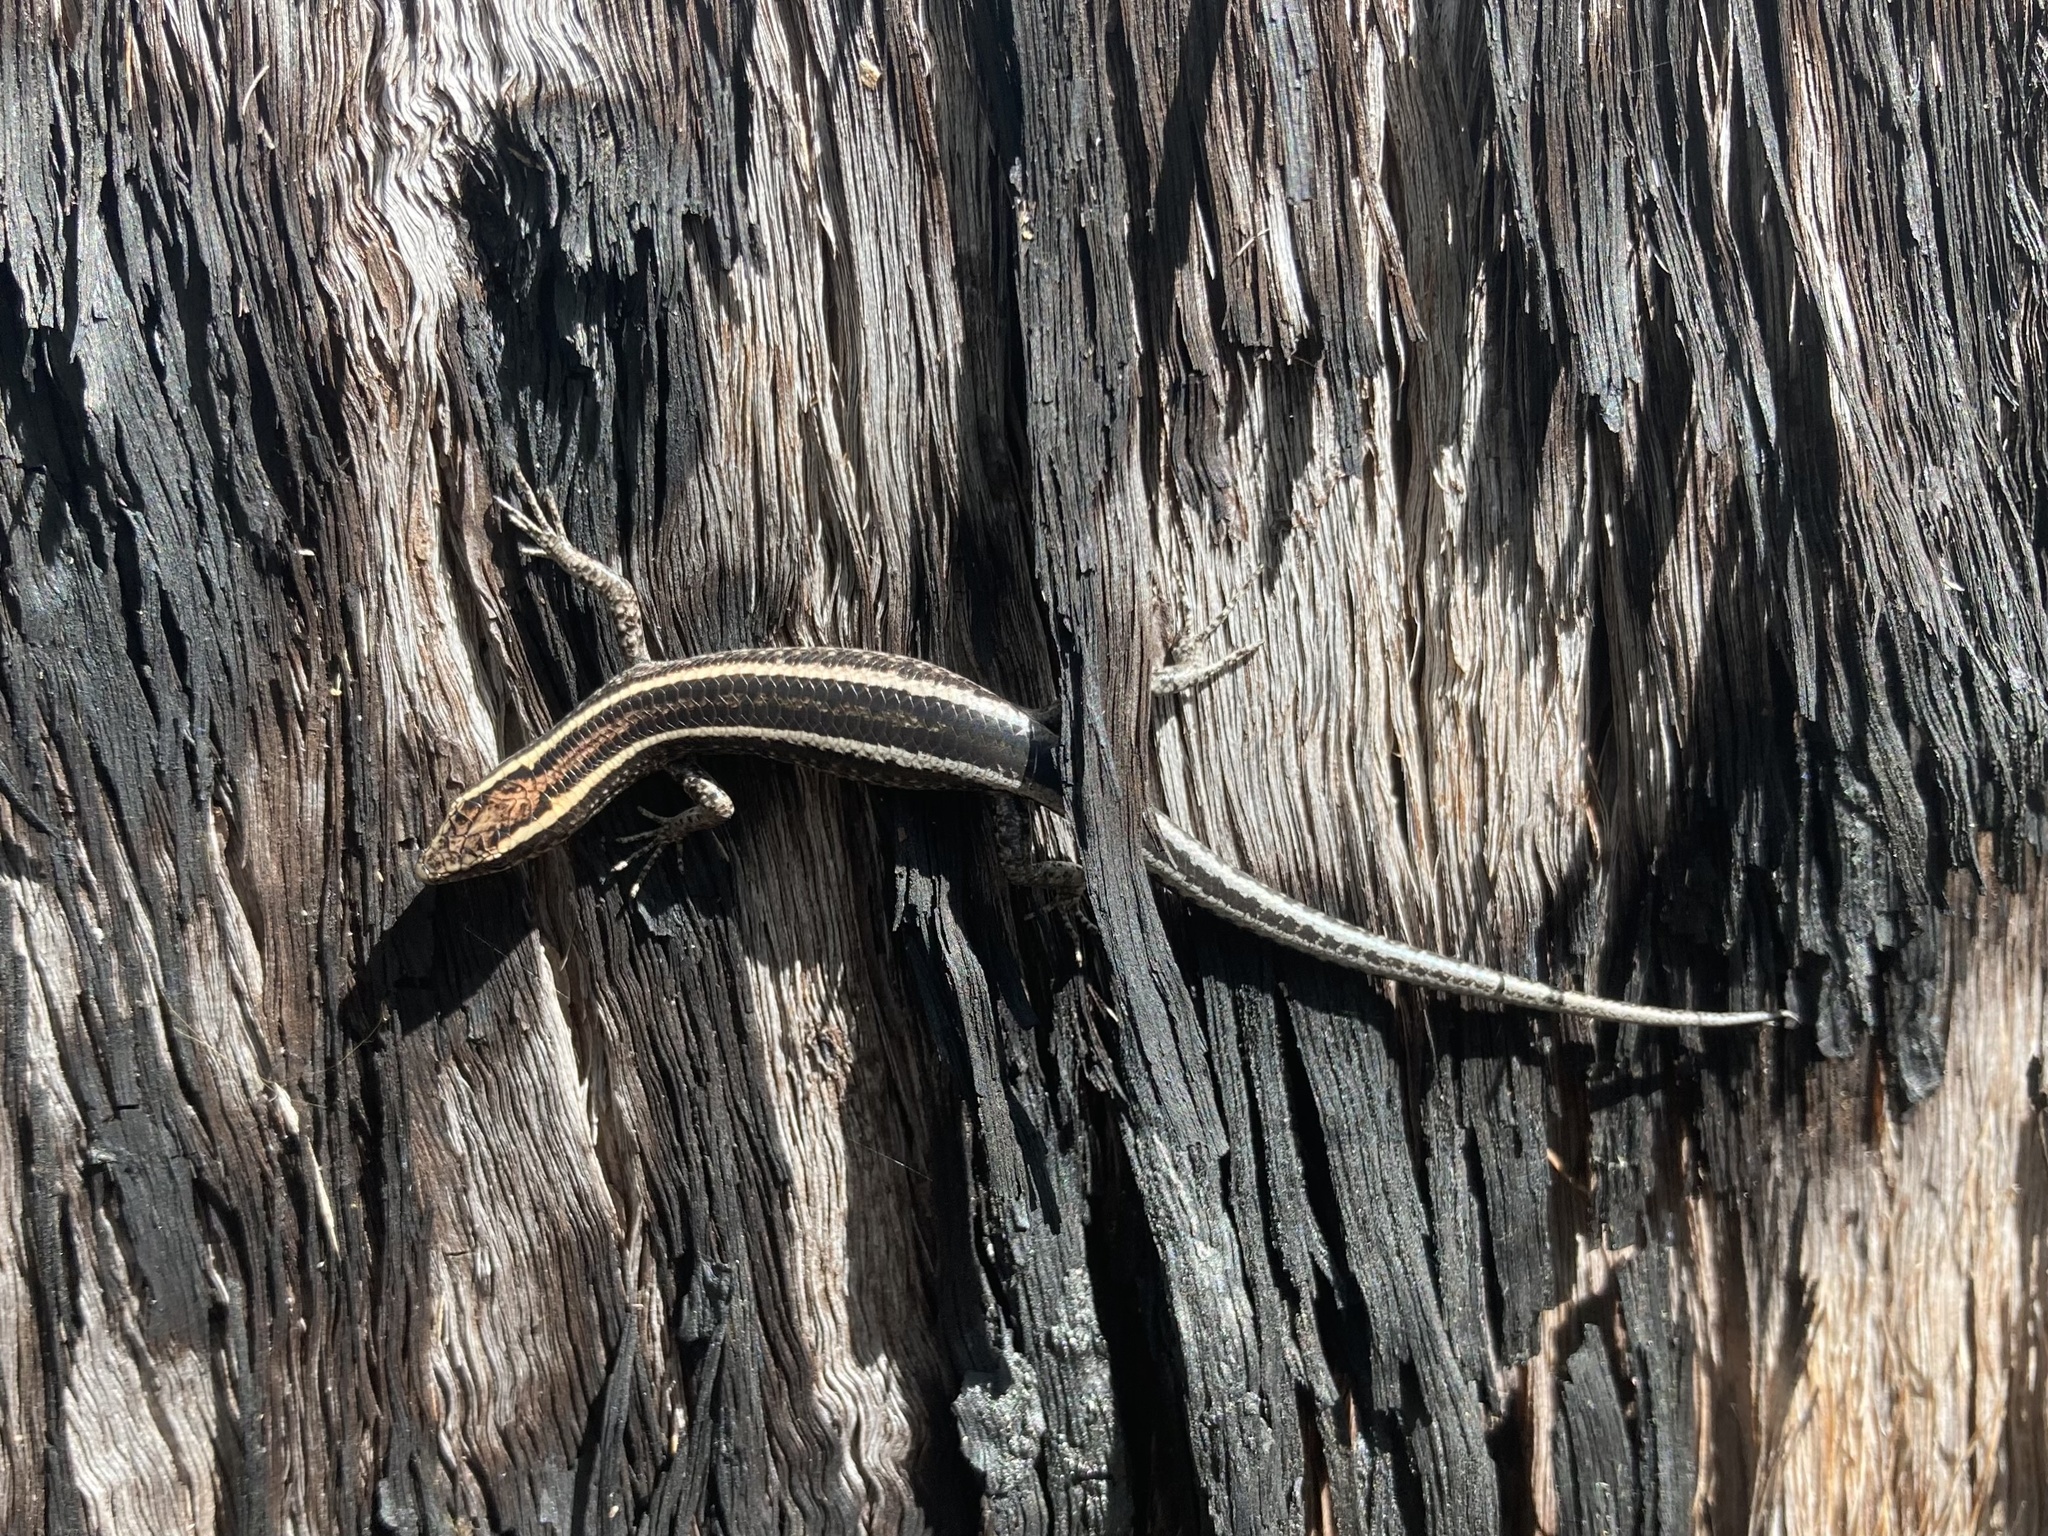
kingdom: Animalia
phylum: Chordata
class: Squamata
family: Scincidae
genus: Cryptoblepharus
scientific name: Cryptoblepharus pulcher
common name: Elegant snake-eyed skink
